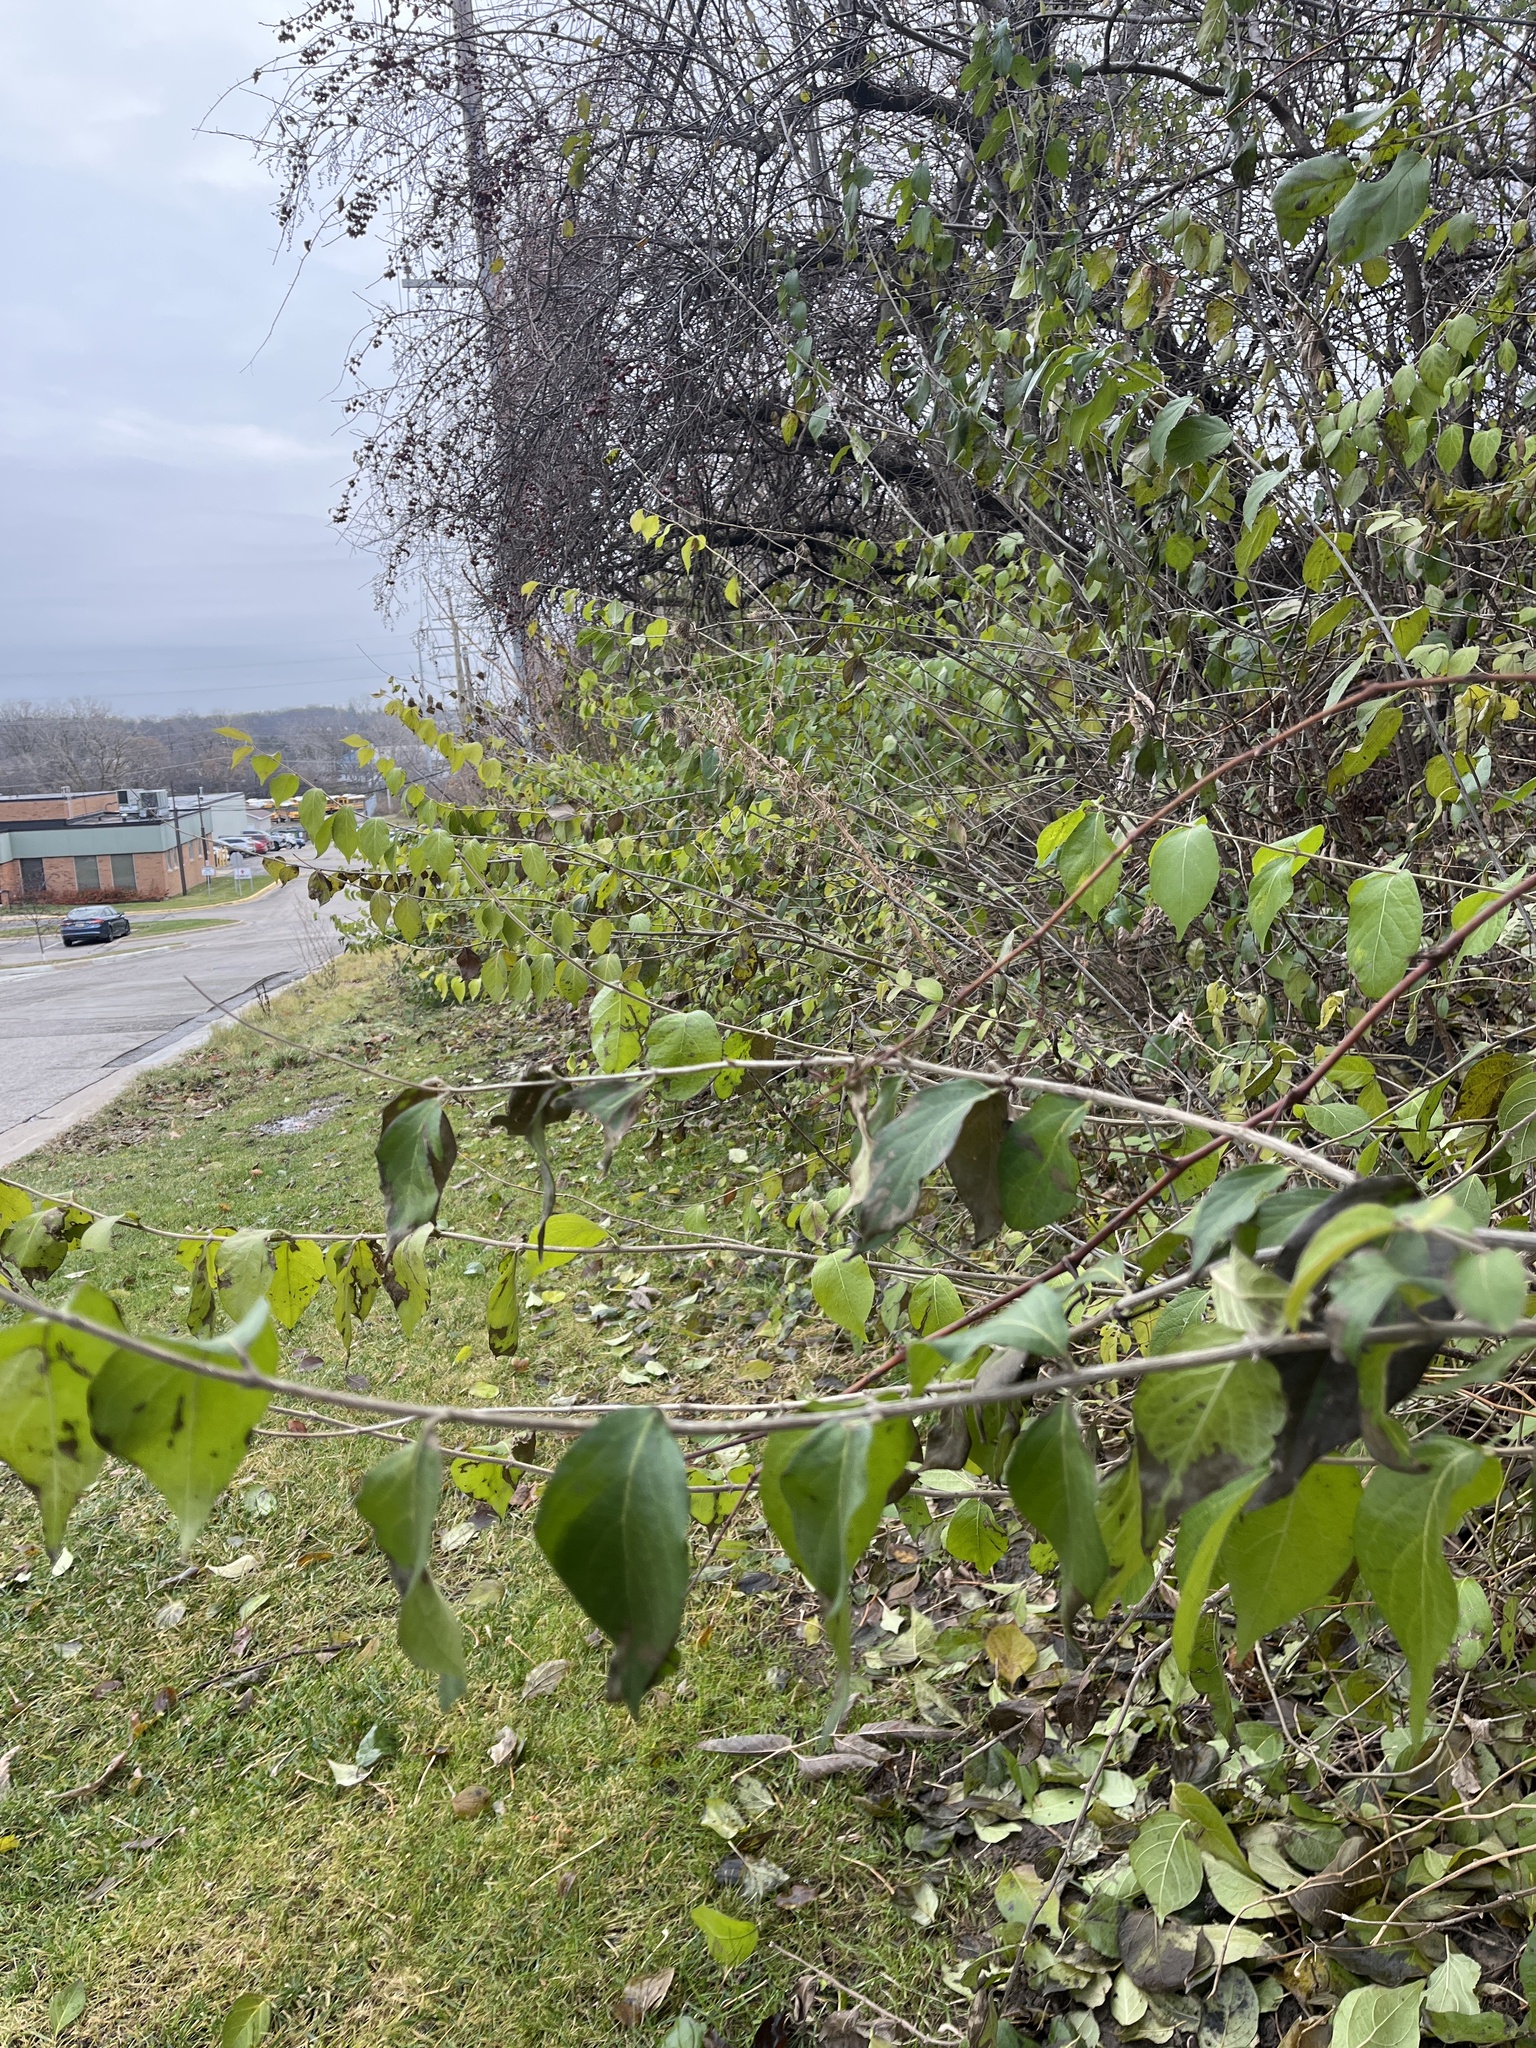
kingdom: Plantae
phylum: Tracheophyta
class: Magnoliopsida
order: Dipsacales
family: Caprifoliaceae
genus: Lonicera
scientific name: Lonicera maackii
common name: Amur honeysuckle
